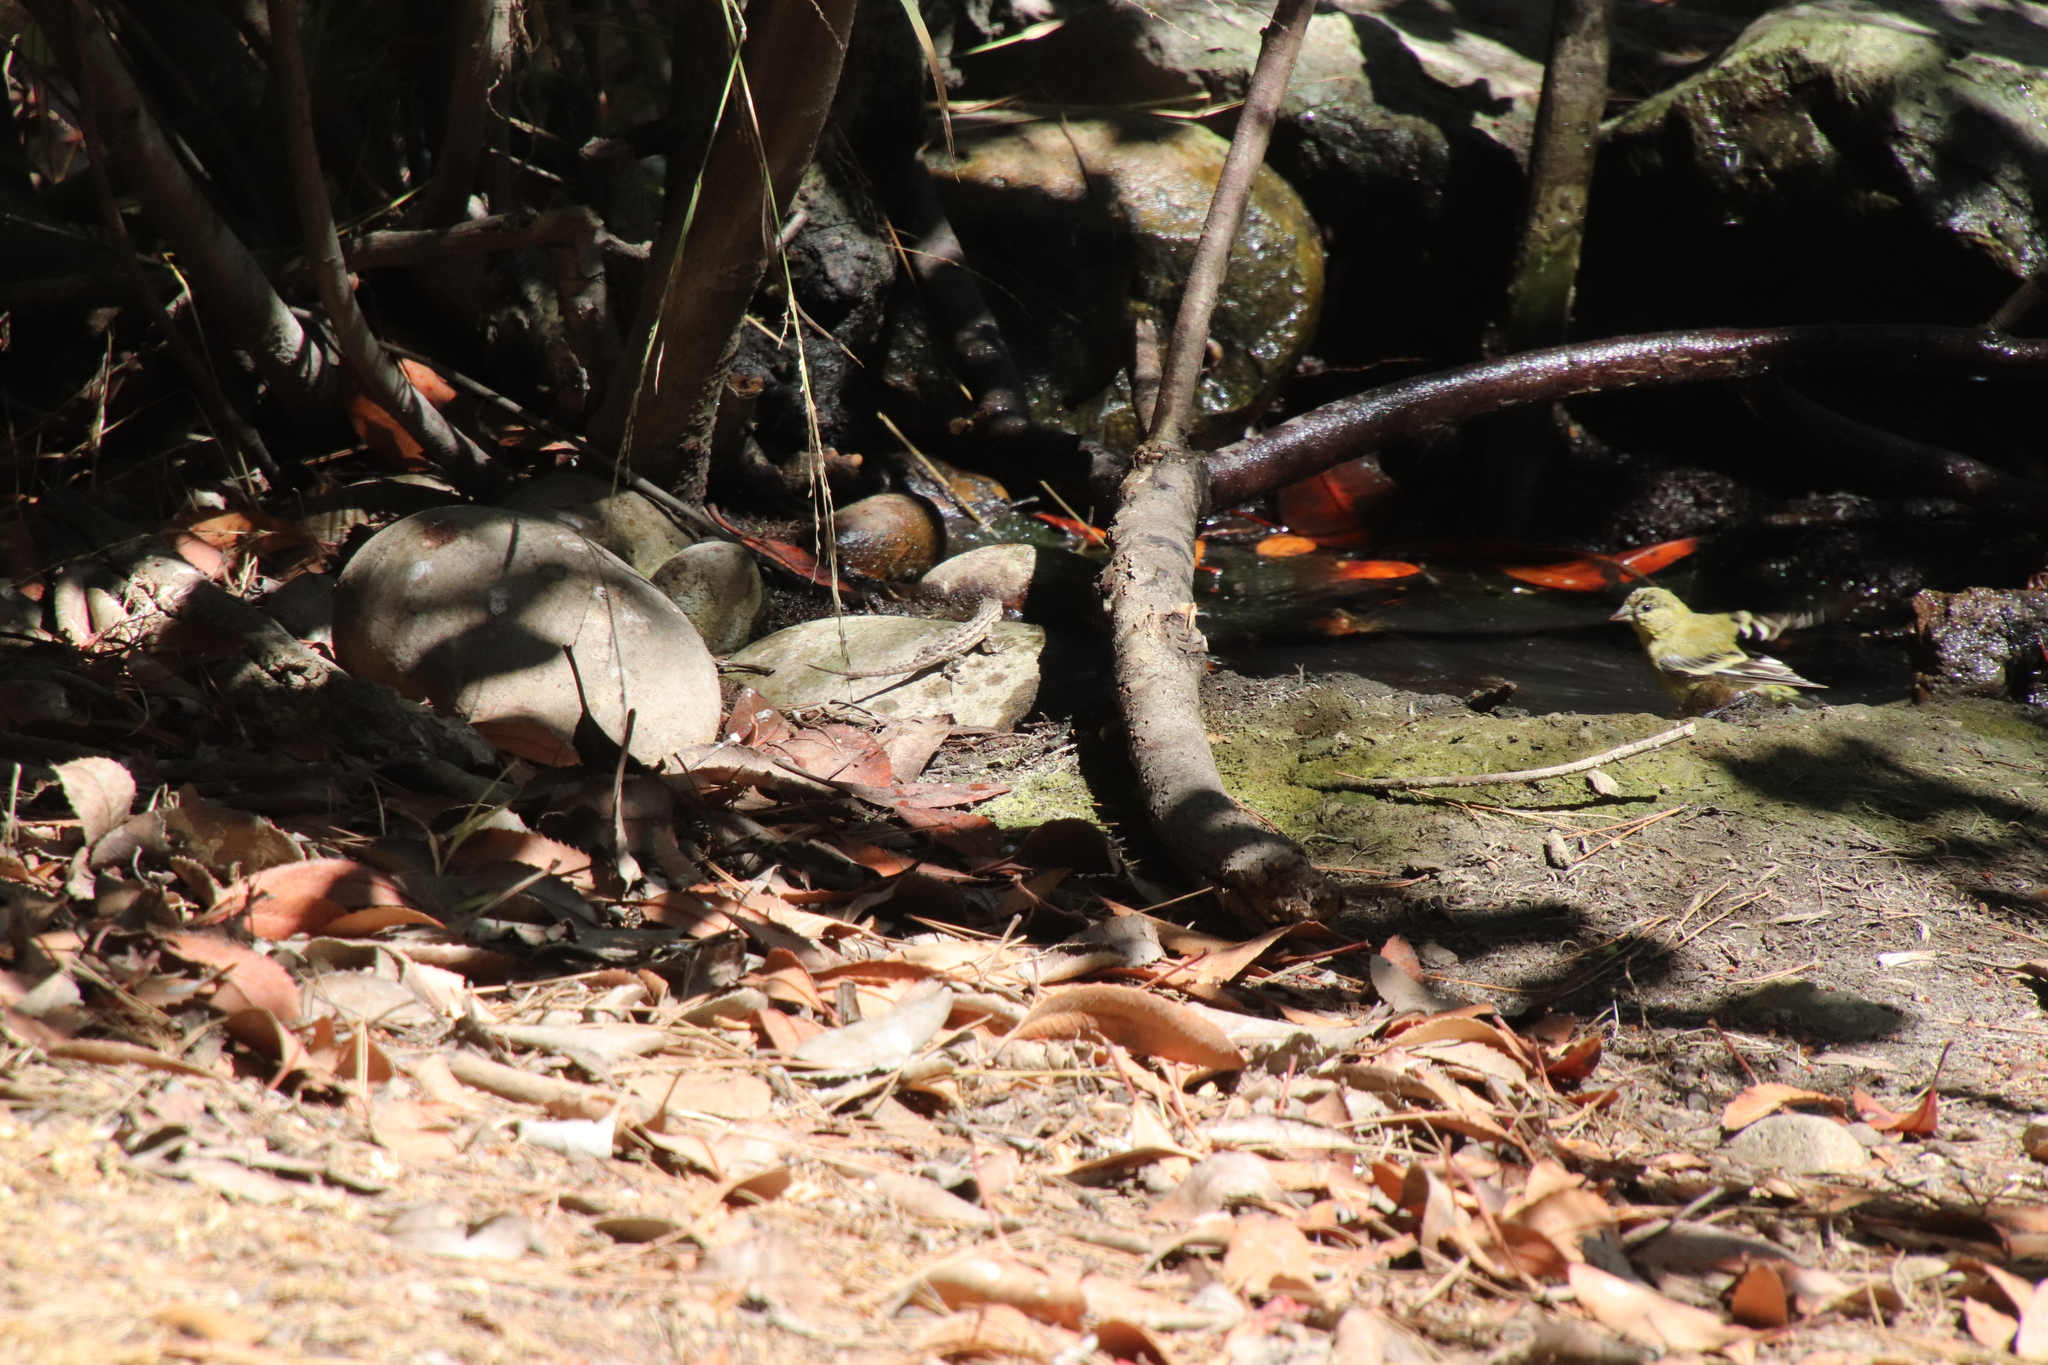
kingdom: Animalia
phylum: Chordata
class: Squamata
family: Phrynosomatidae
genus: Sceloporus
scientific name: Sceloporus occidentalis
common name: Western fence lizard
